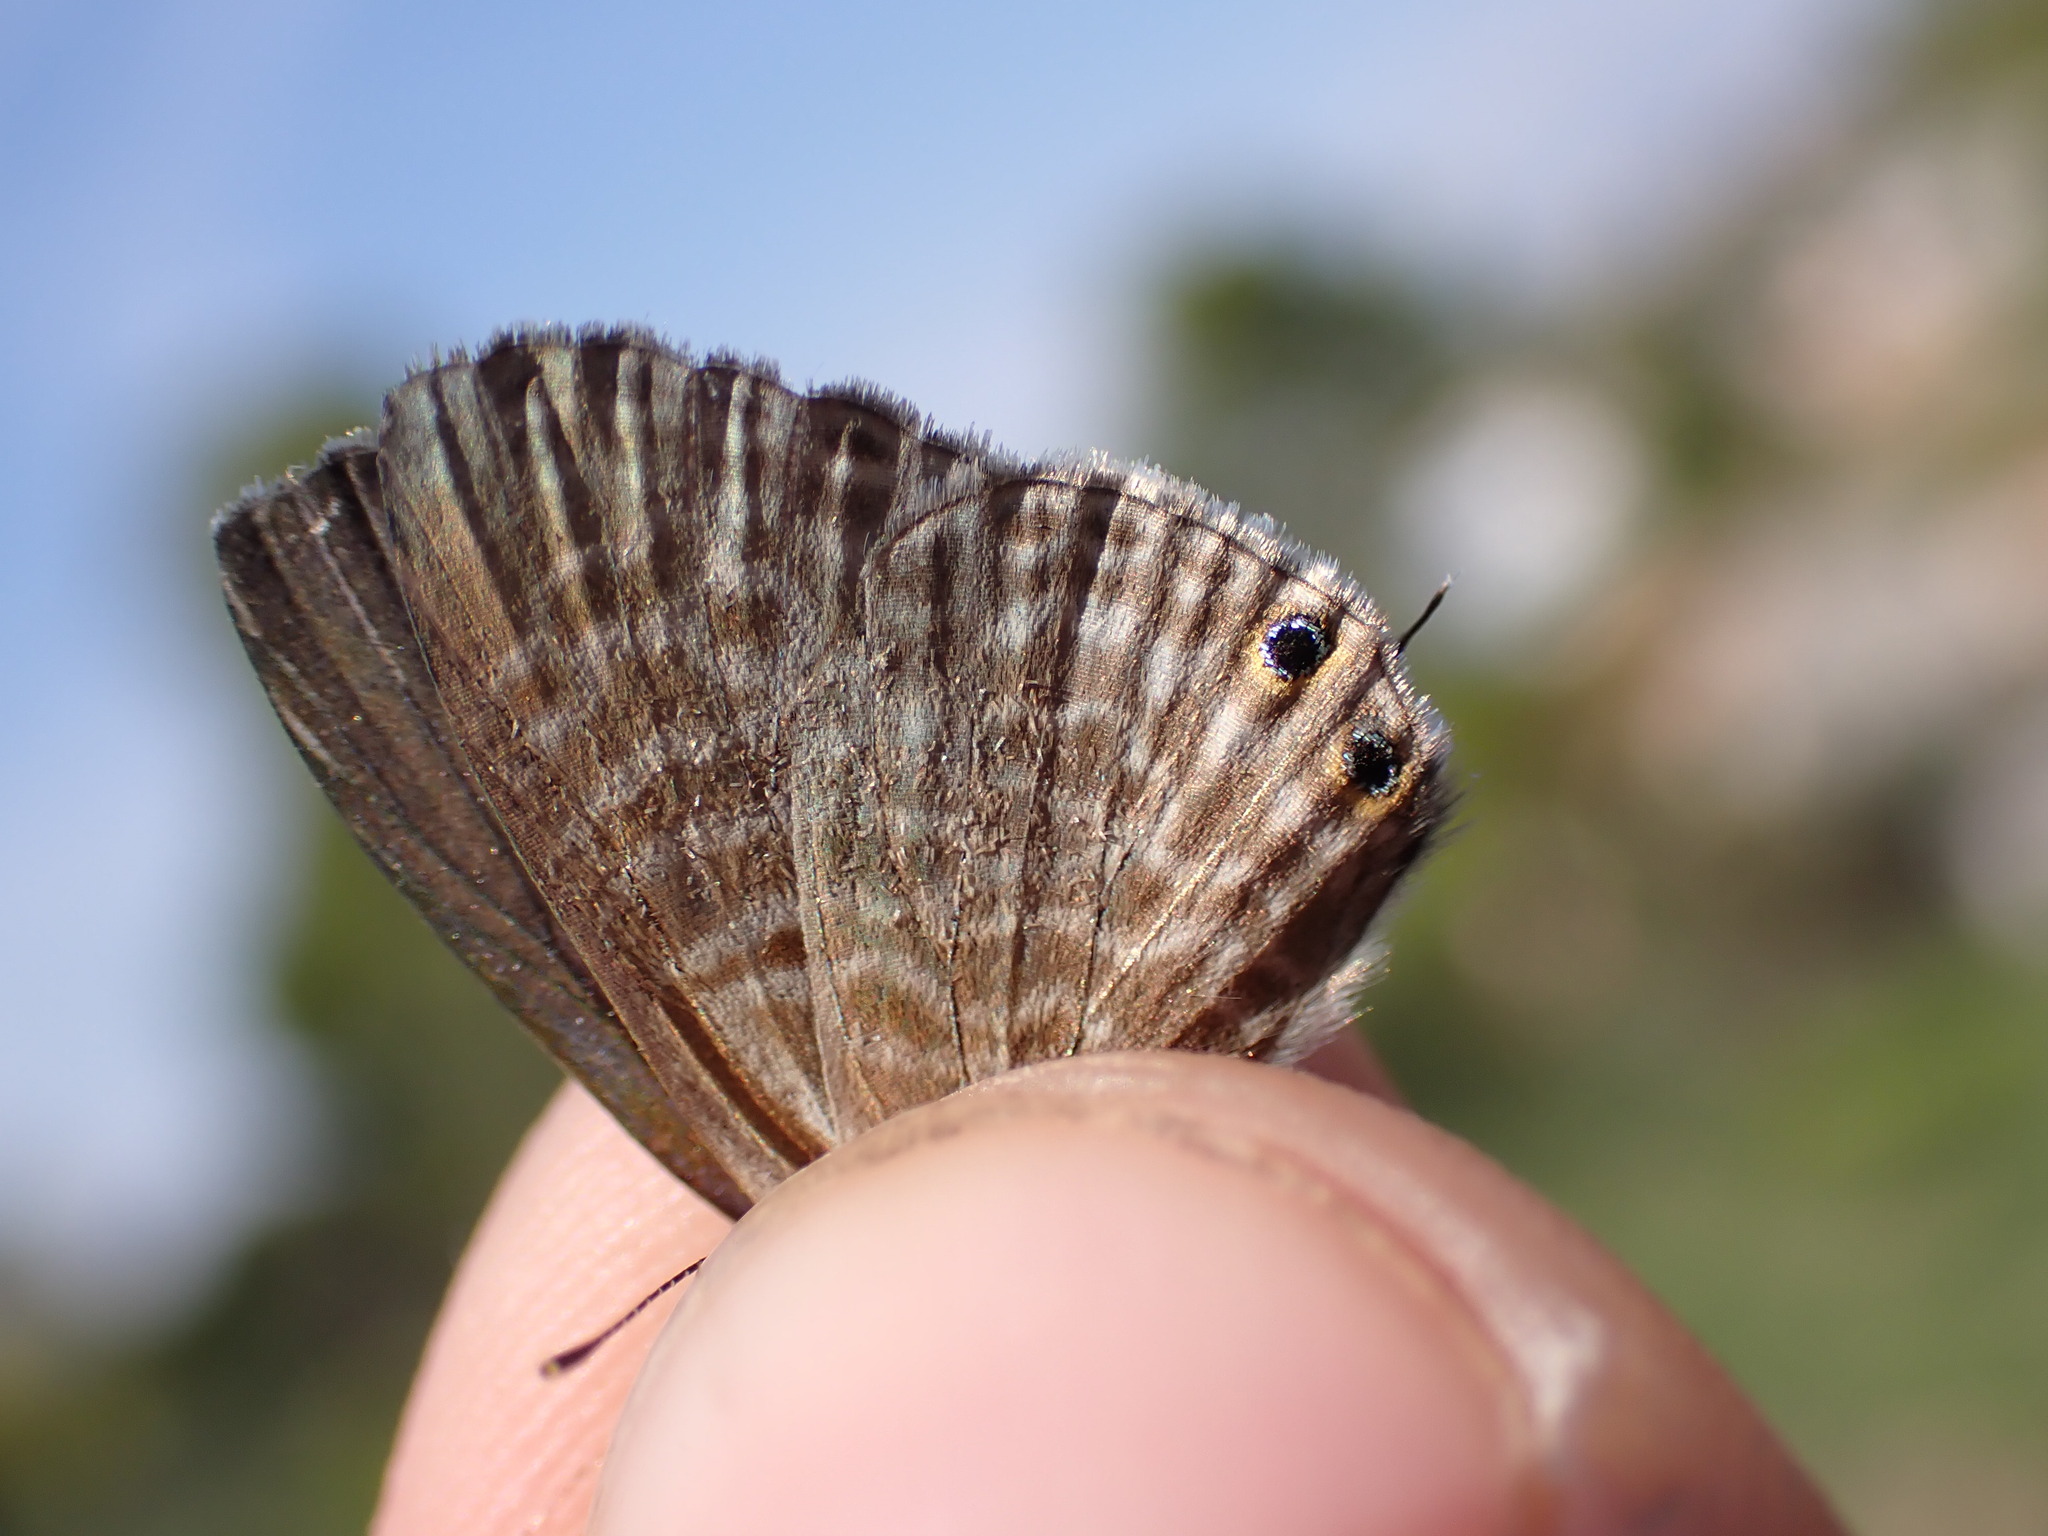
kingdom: Animalia
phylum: Arthropoda
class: Insecta
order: Lepidoptera
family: Lycaenidae
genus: Leptotes
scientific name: Leptotes pirithous
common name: Lang's short-tailed blue
